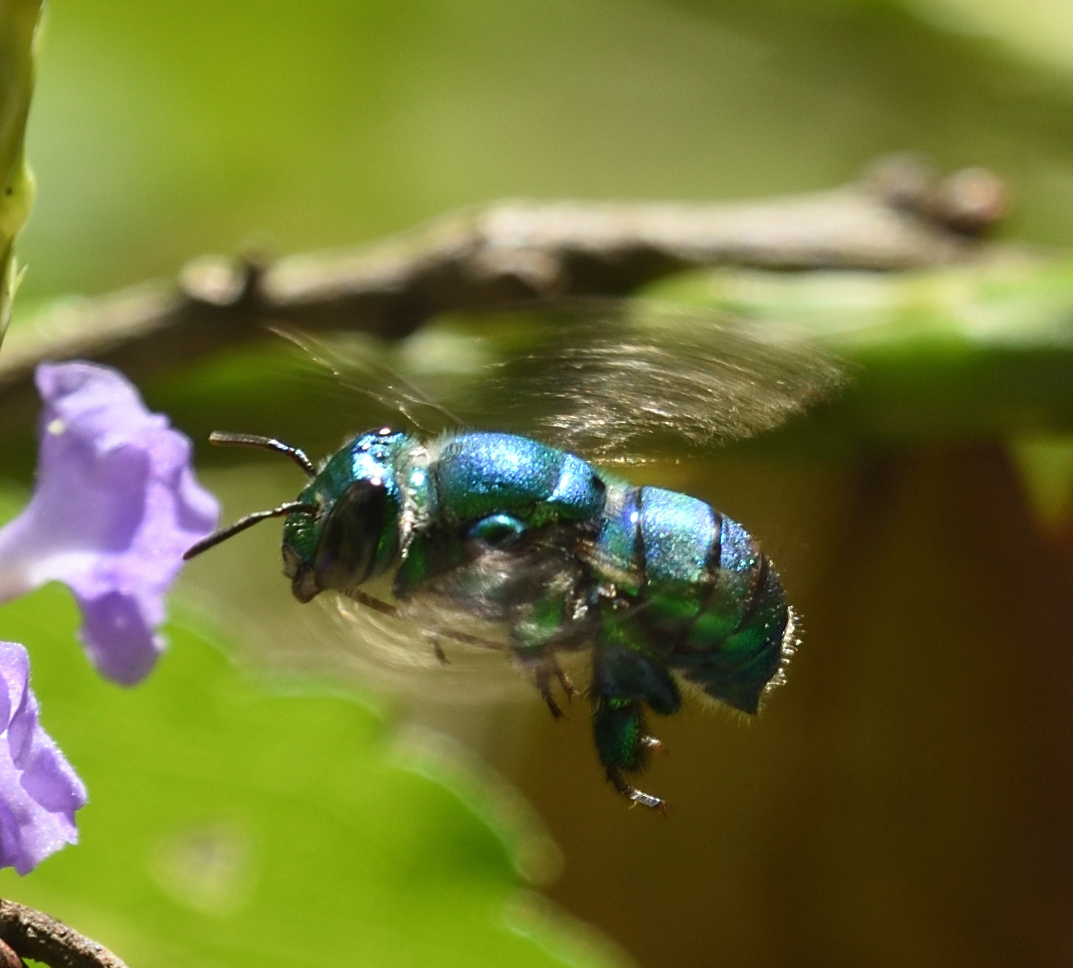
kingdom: Animalia
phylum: Arthropoda
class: Insecta
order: Hymenoptera
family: Apidae
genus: Euglossa
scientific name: Euglossa dilemma
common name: Green orchid bee
